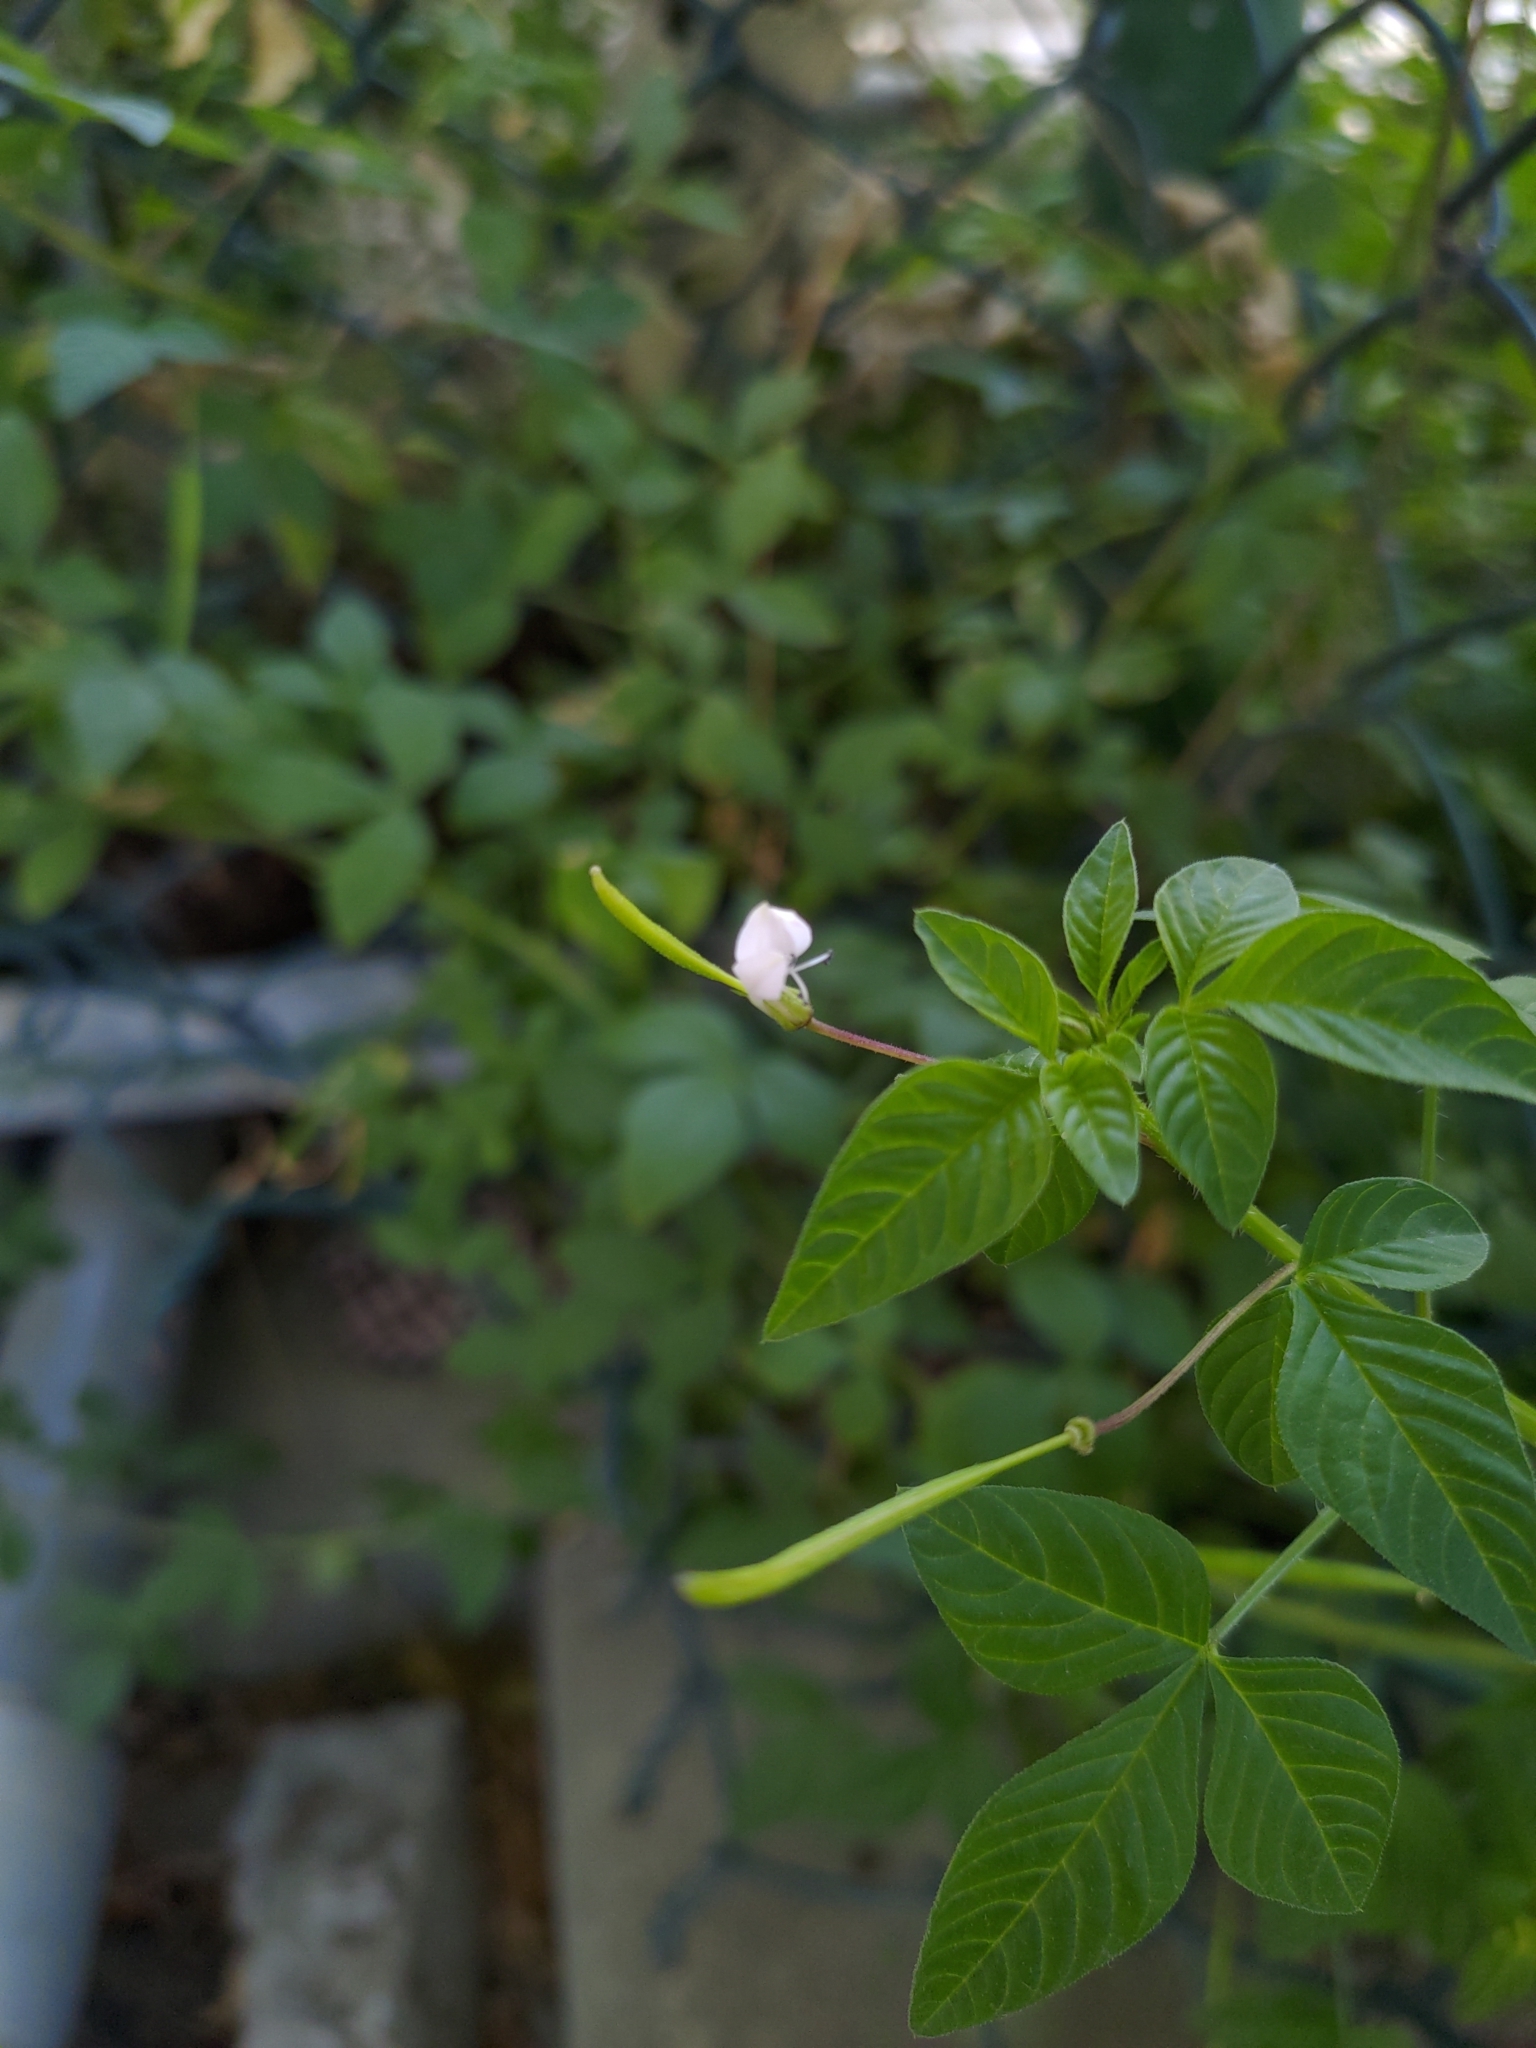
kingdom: Plantae
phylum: Tracheophyta
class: Magnoliopsida
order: Brassicales
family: Cleomaceae
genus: Sieruela
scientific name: Sieruela rutidosperma
